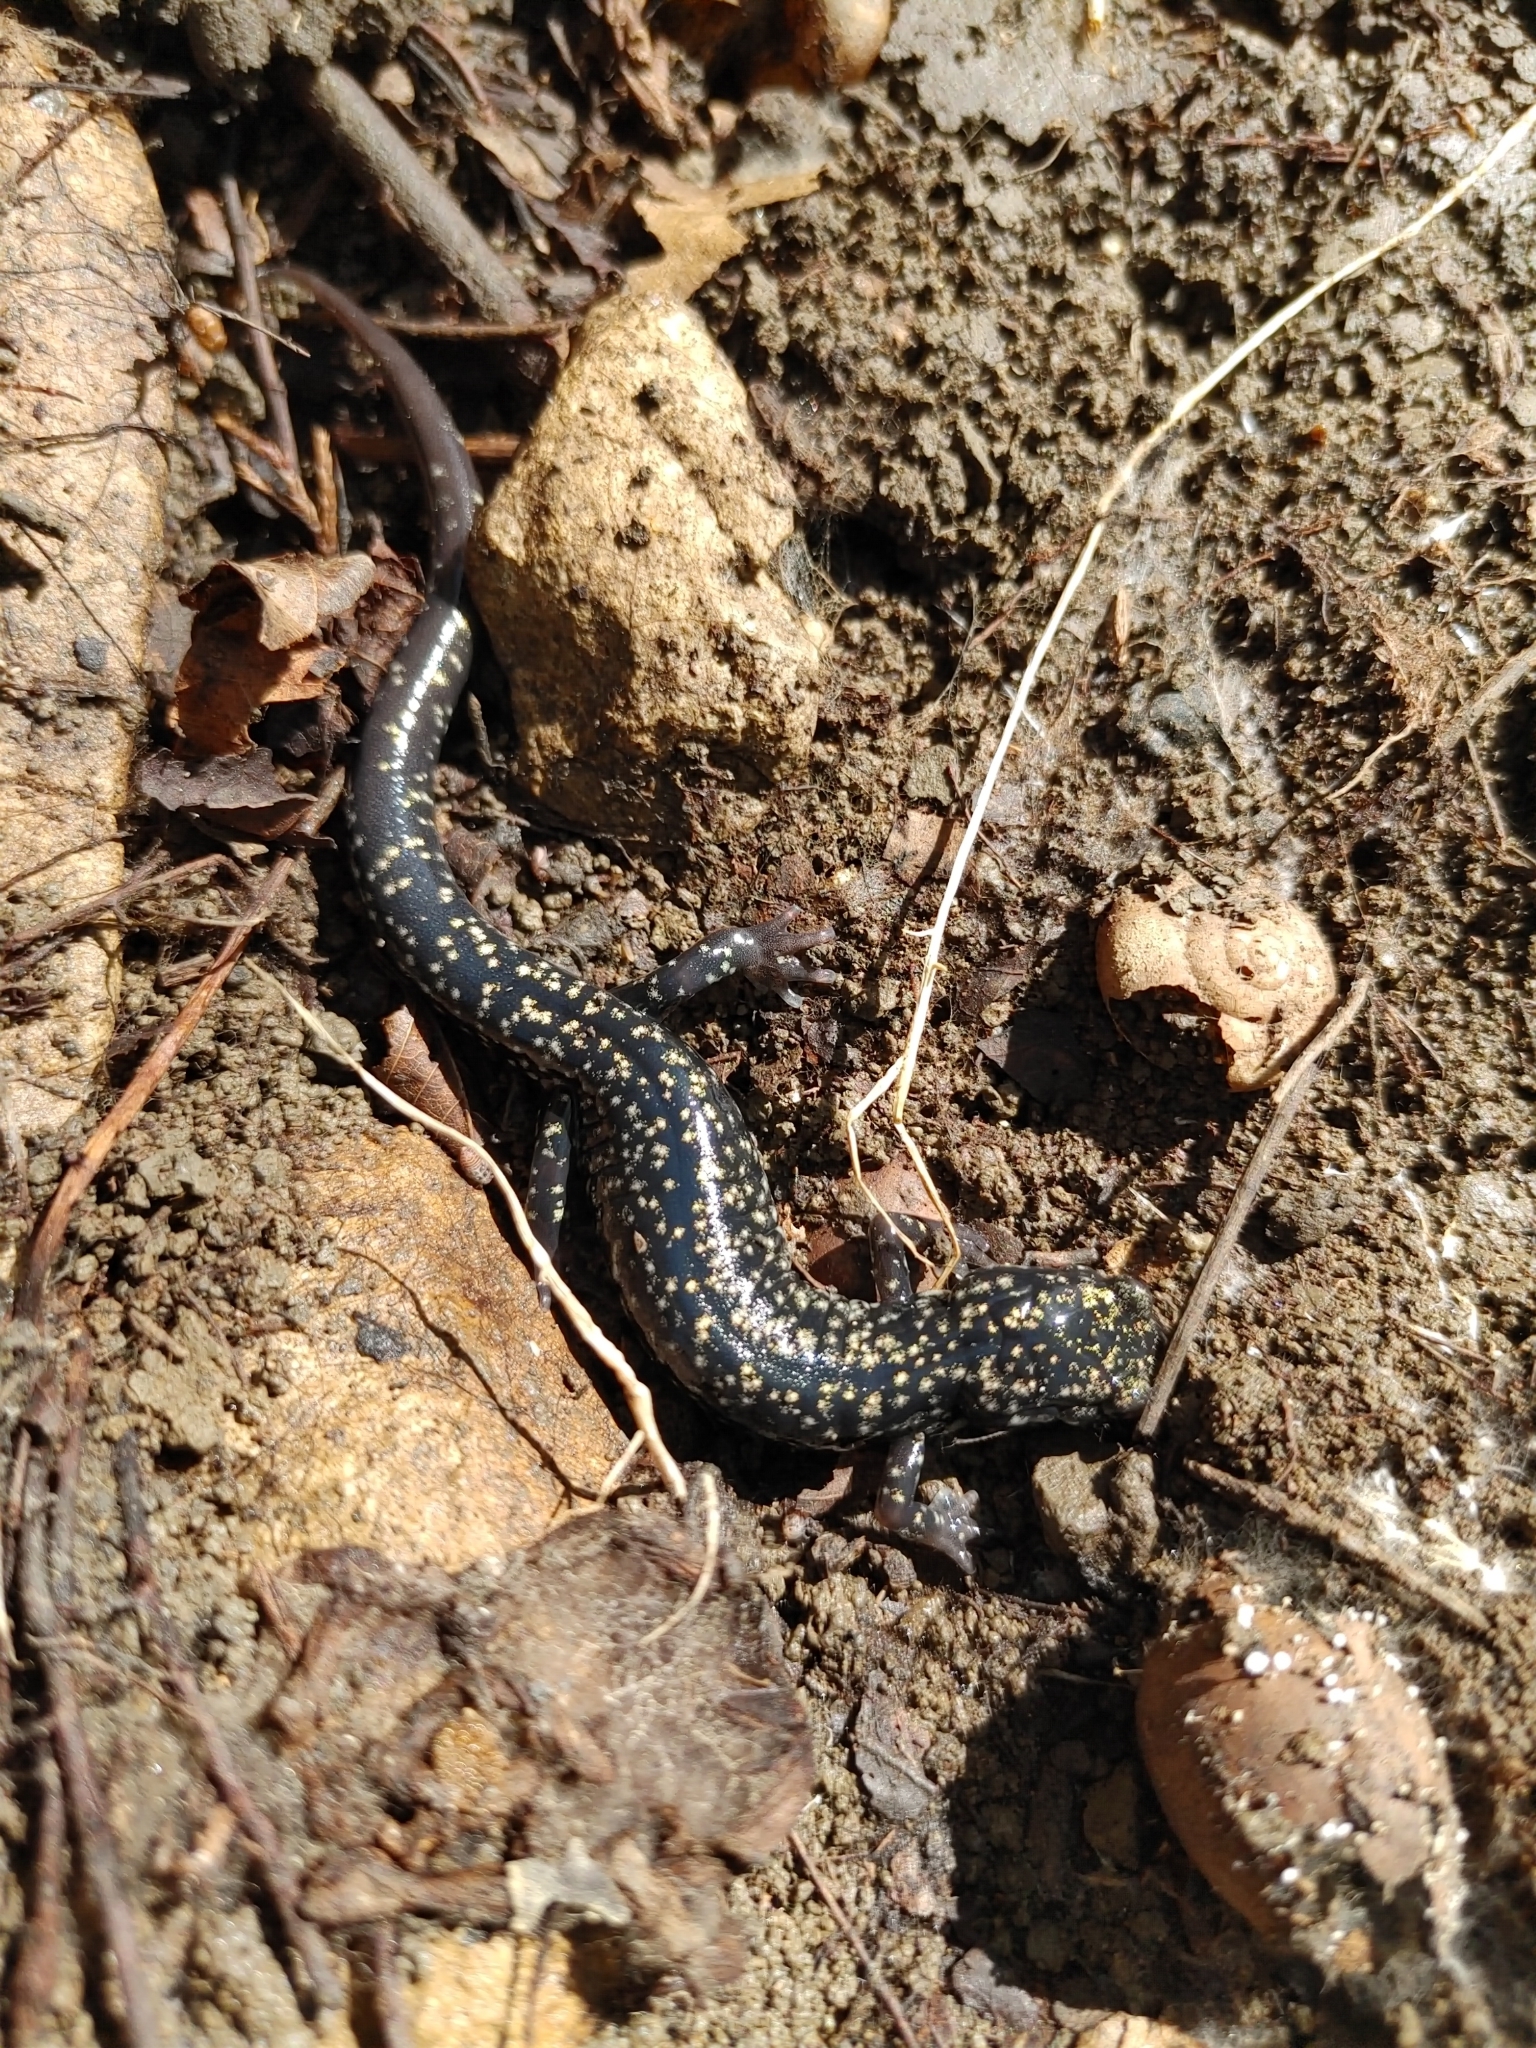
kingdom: Animalia
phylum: Chordata
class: Amphibia
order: Caudata
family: Plethodontidae
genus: Plethodon
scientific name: Plethodon glutinosus
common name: Northern slimy salamander
